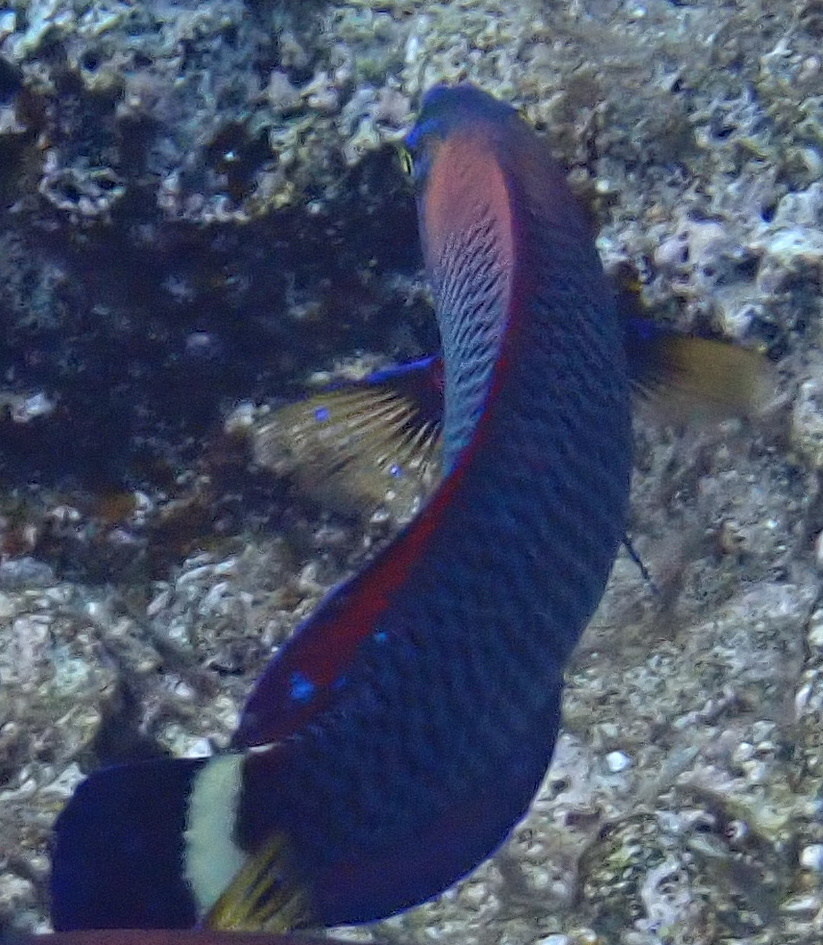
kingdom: Animalia
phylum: Chordata
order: Perciformes
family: Labridae
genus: Pseudodax
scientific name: Pseudodax moluccanus
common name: Chiseltooth wrasse
